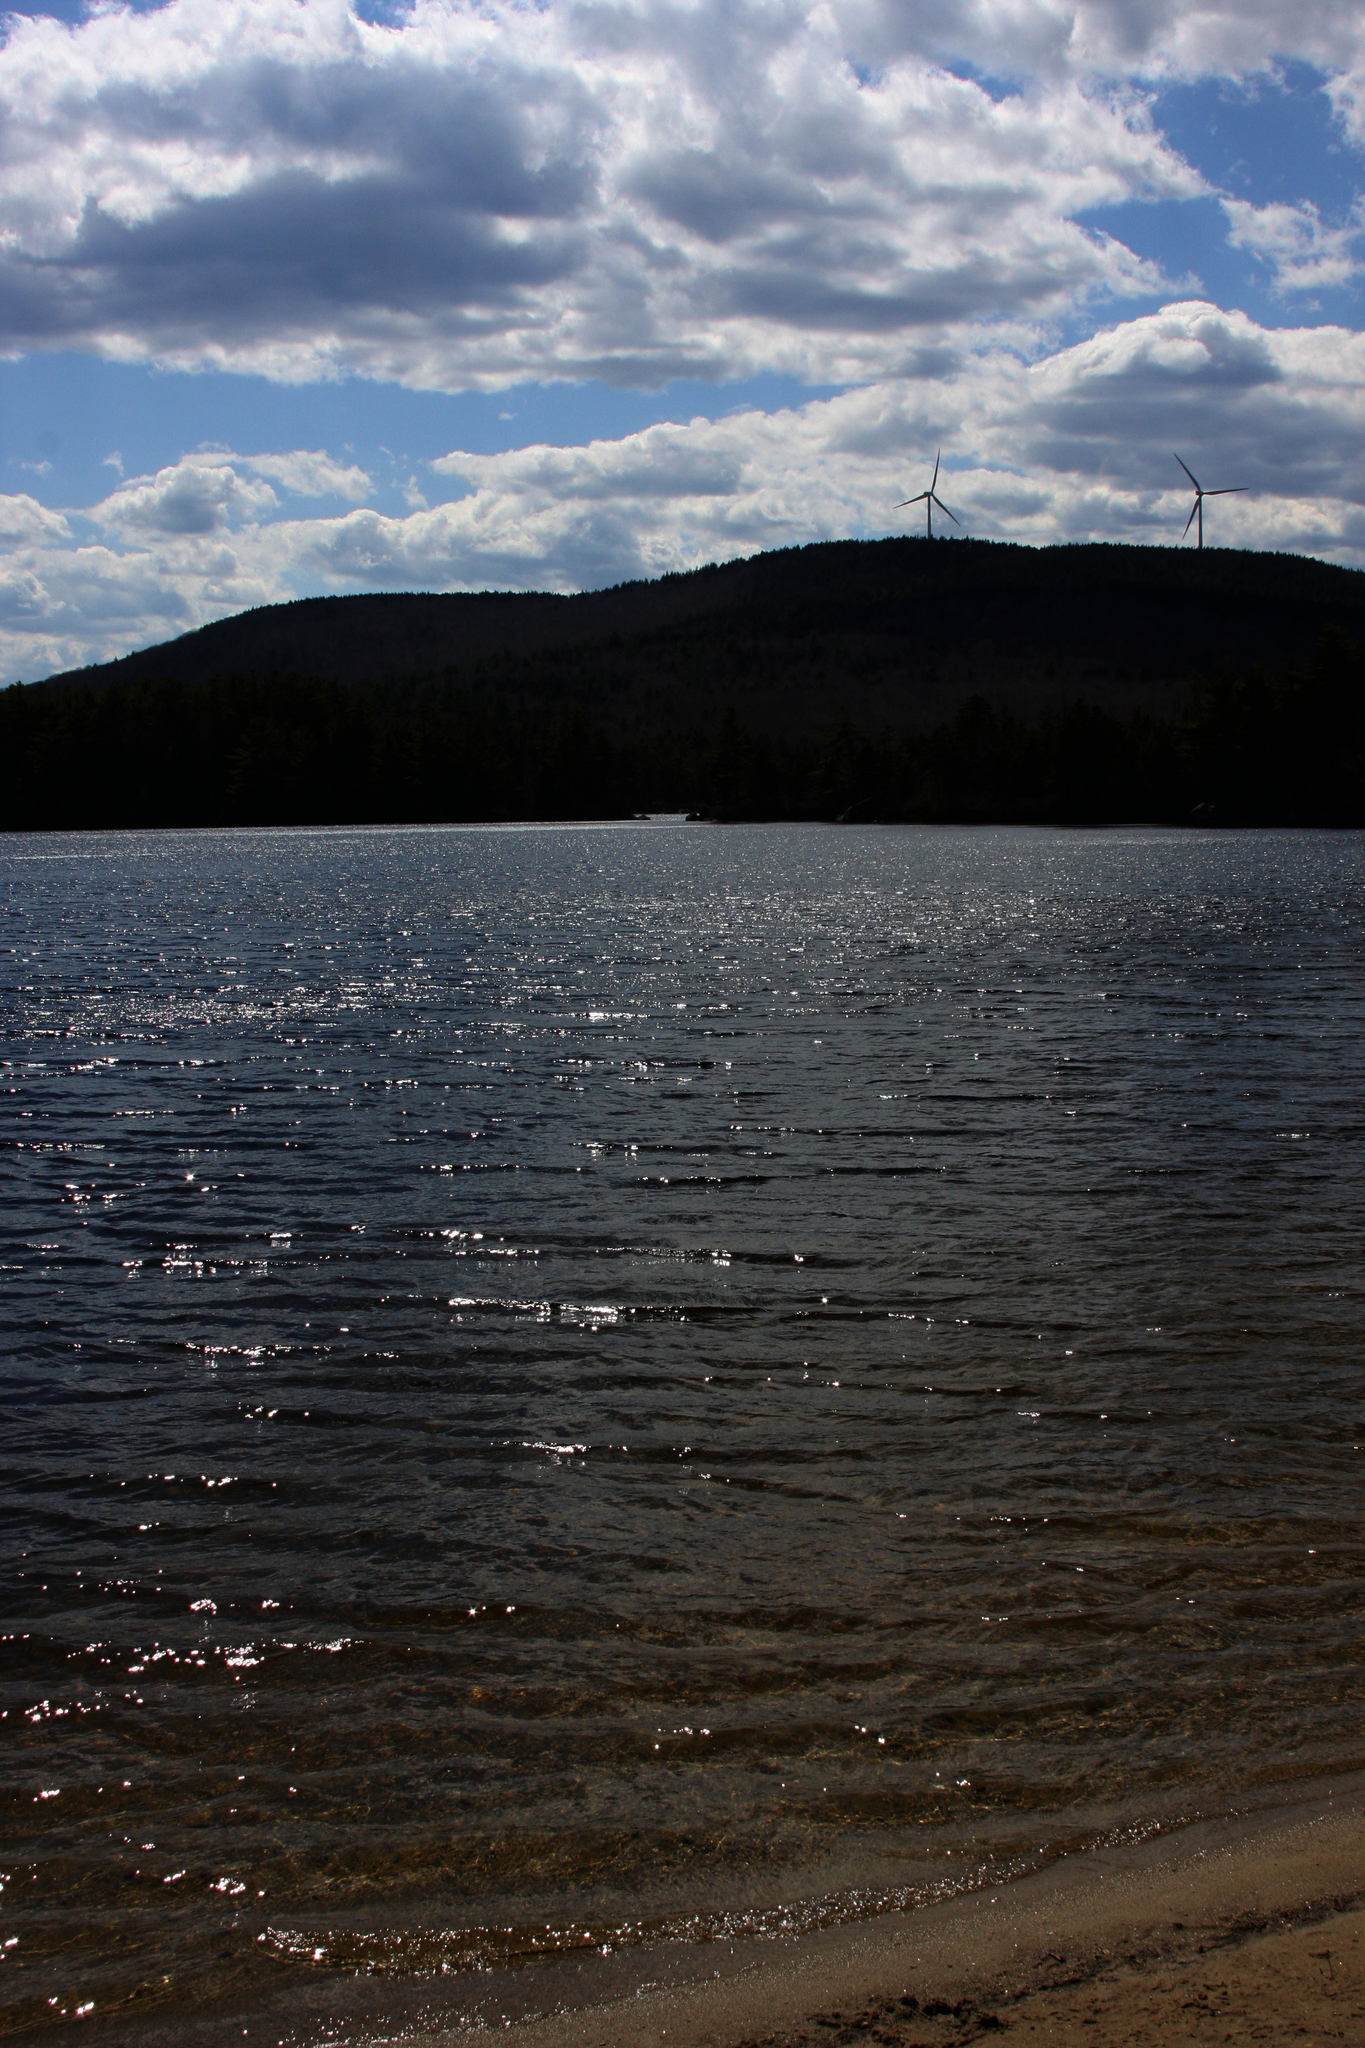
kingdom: Plantae
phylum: Tracheophyta
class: Pinopsida
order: Pinales
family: Pinaceae
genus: Pinus
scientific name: Pinus strobus
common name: Weymouth pine
